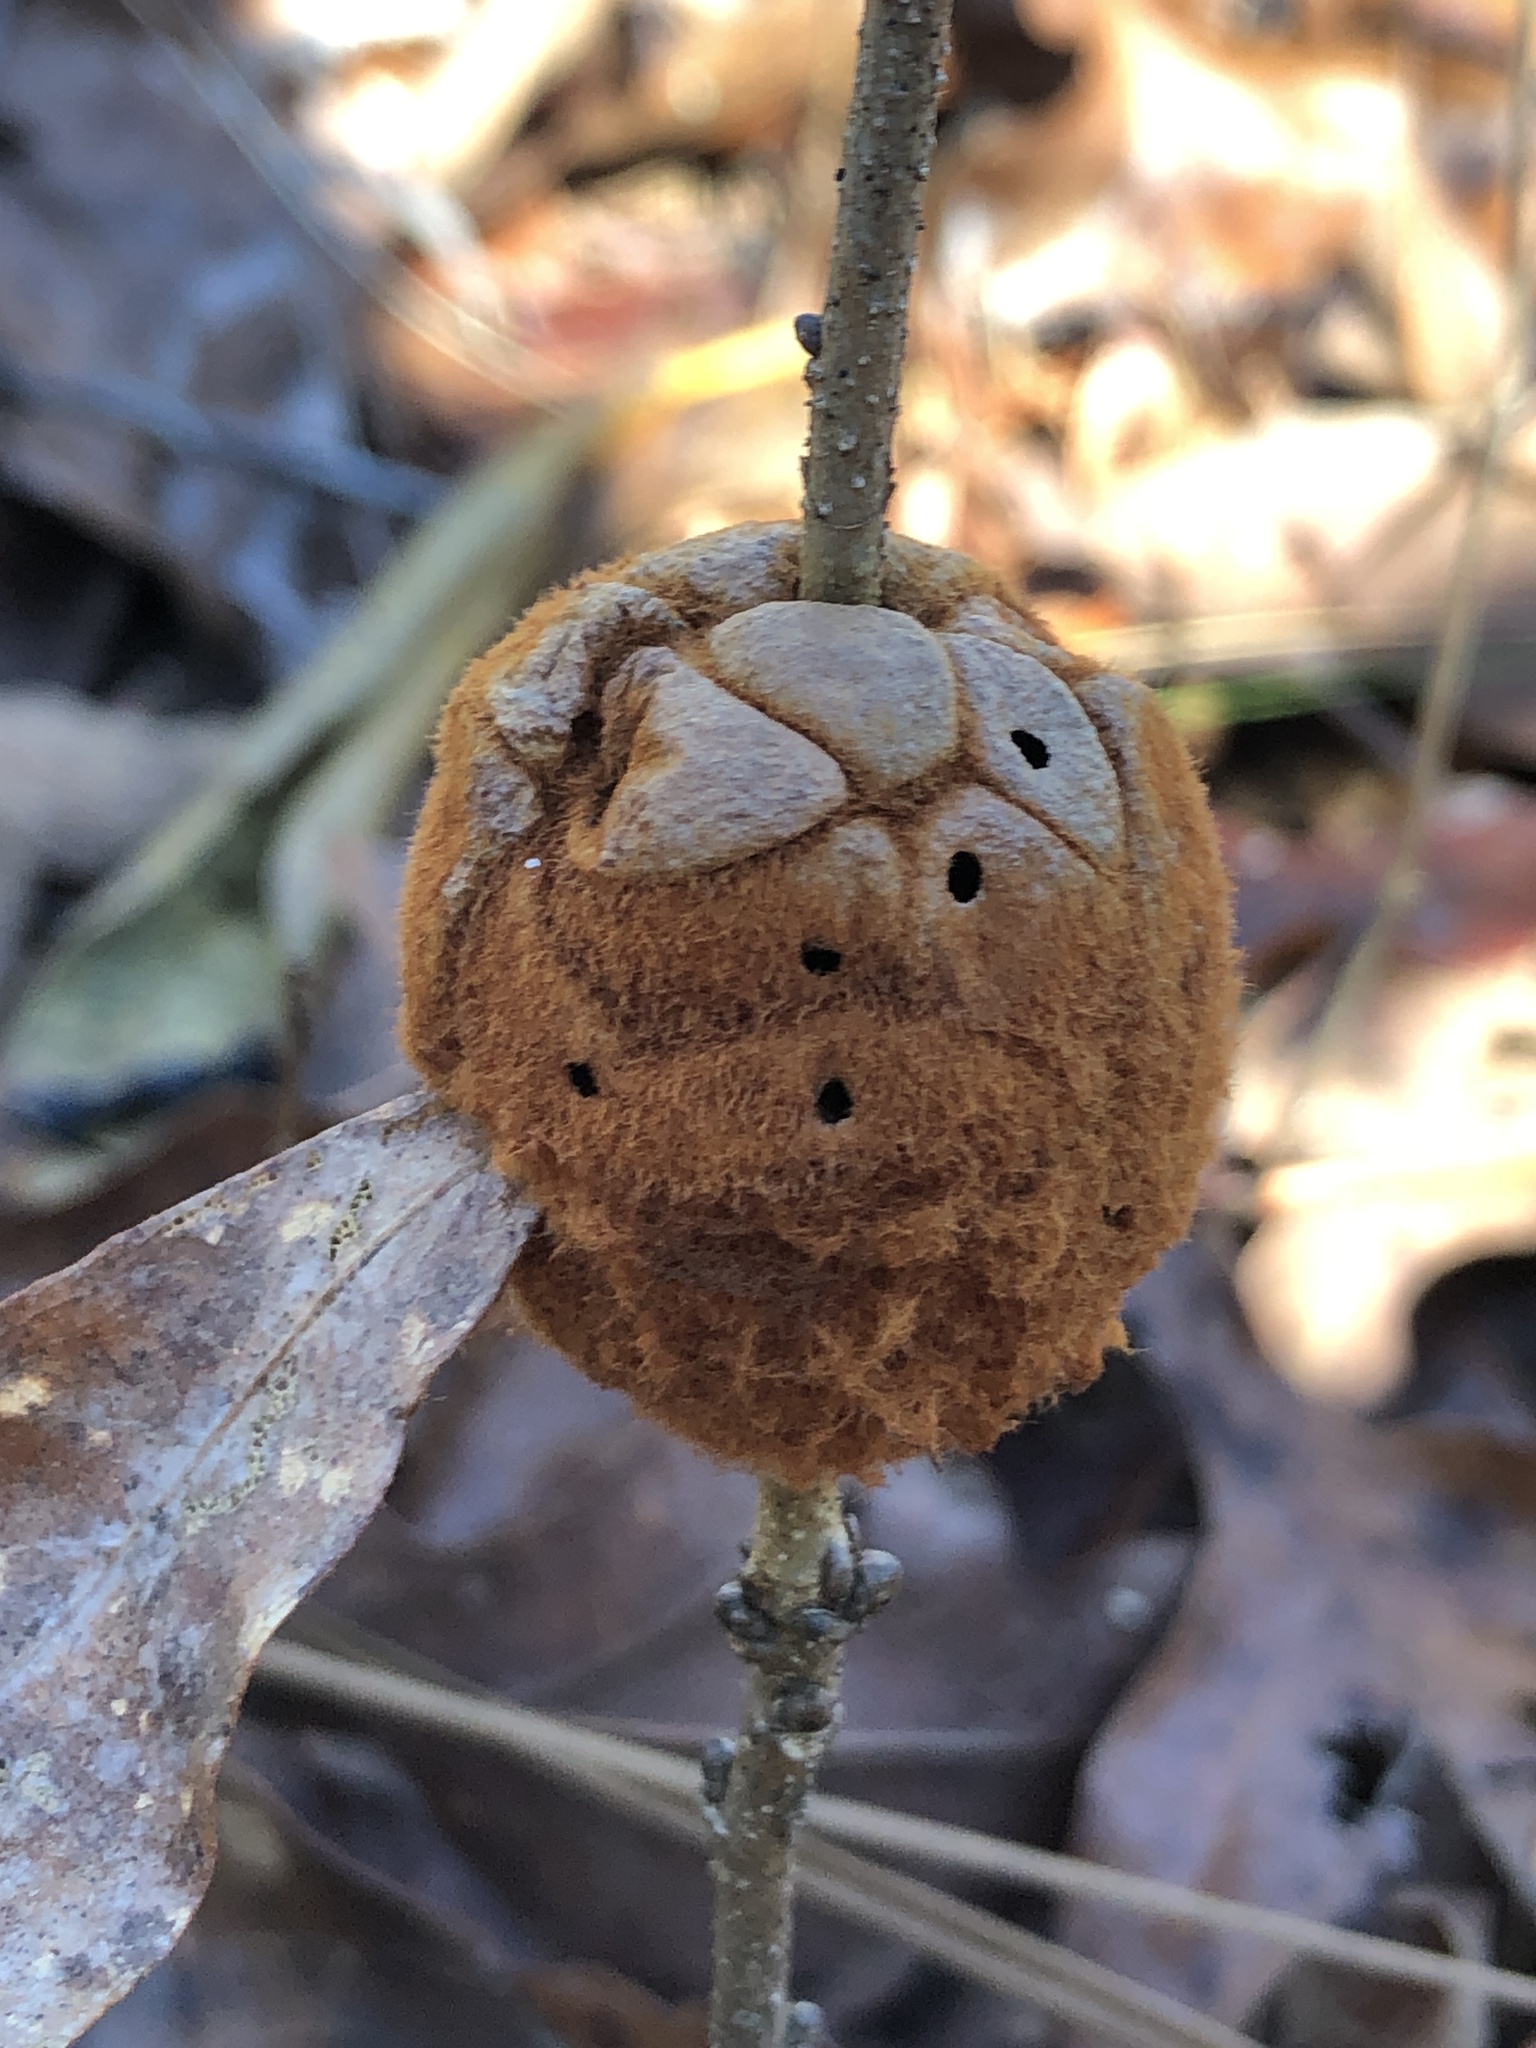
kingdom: Animalia
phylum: Arthropoda
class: Insecta
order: Hymenoptera
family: Cynipidae
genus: Disholcaspis
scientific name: Disholcaspis
